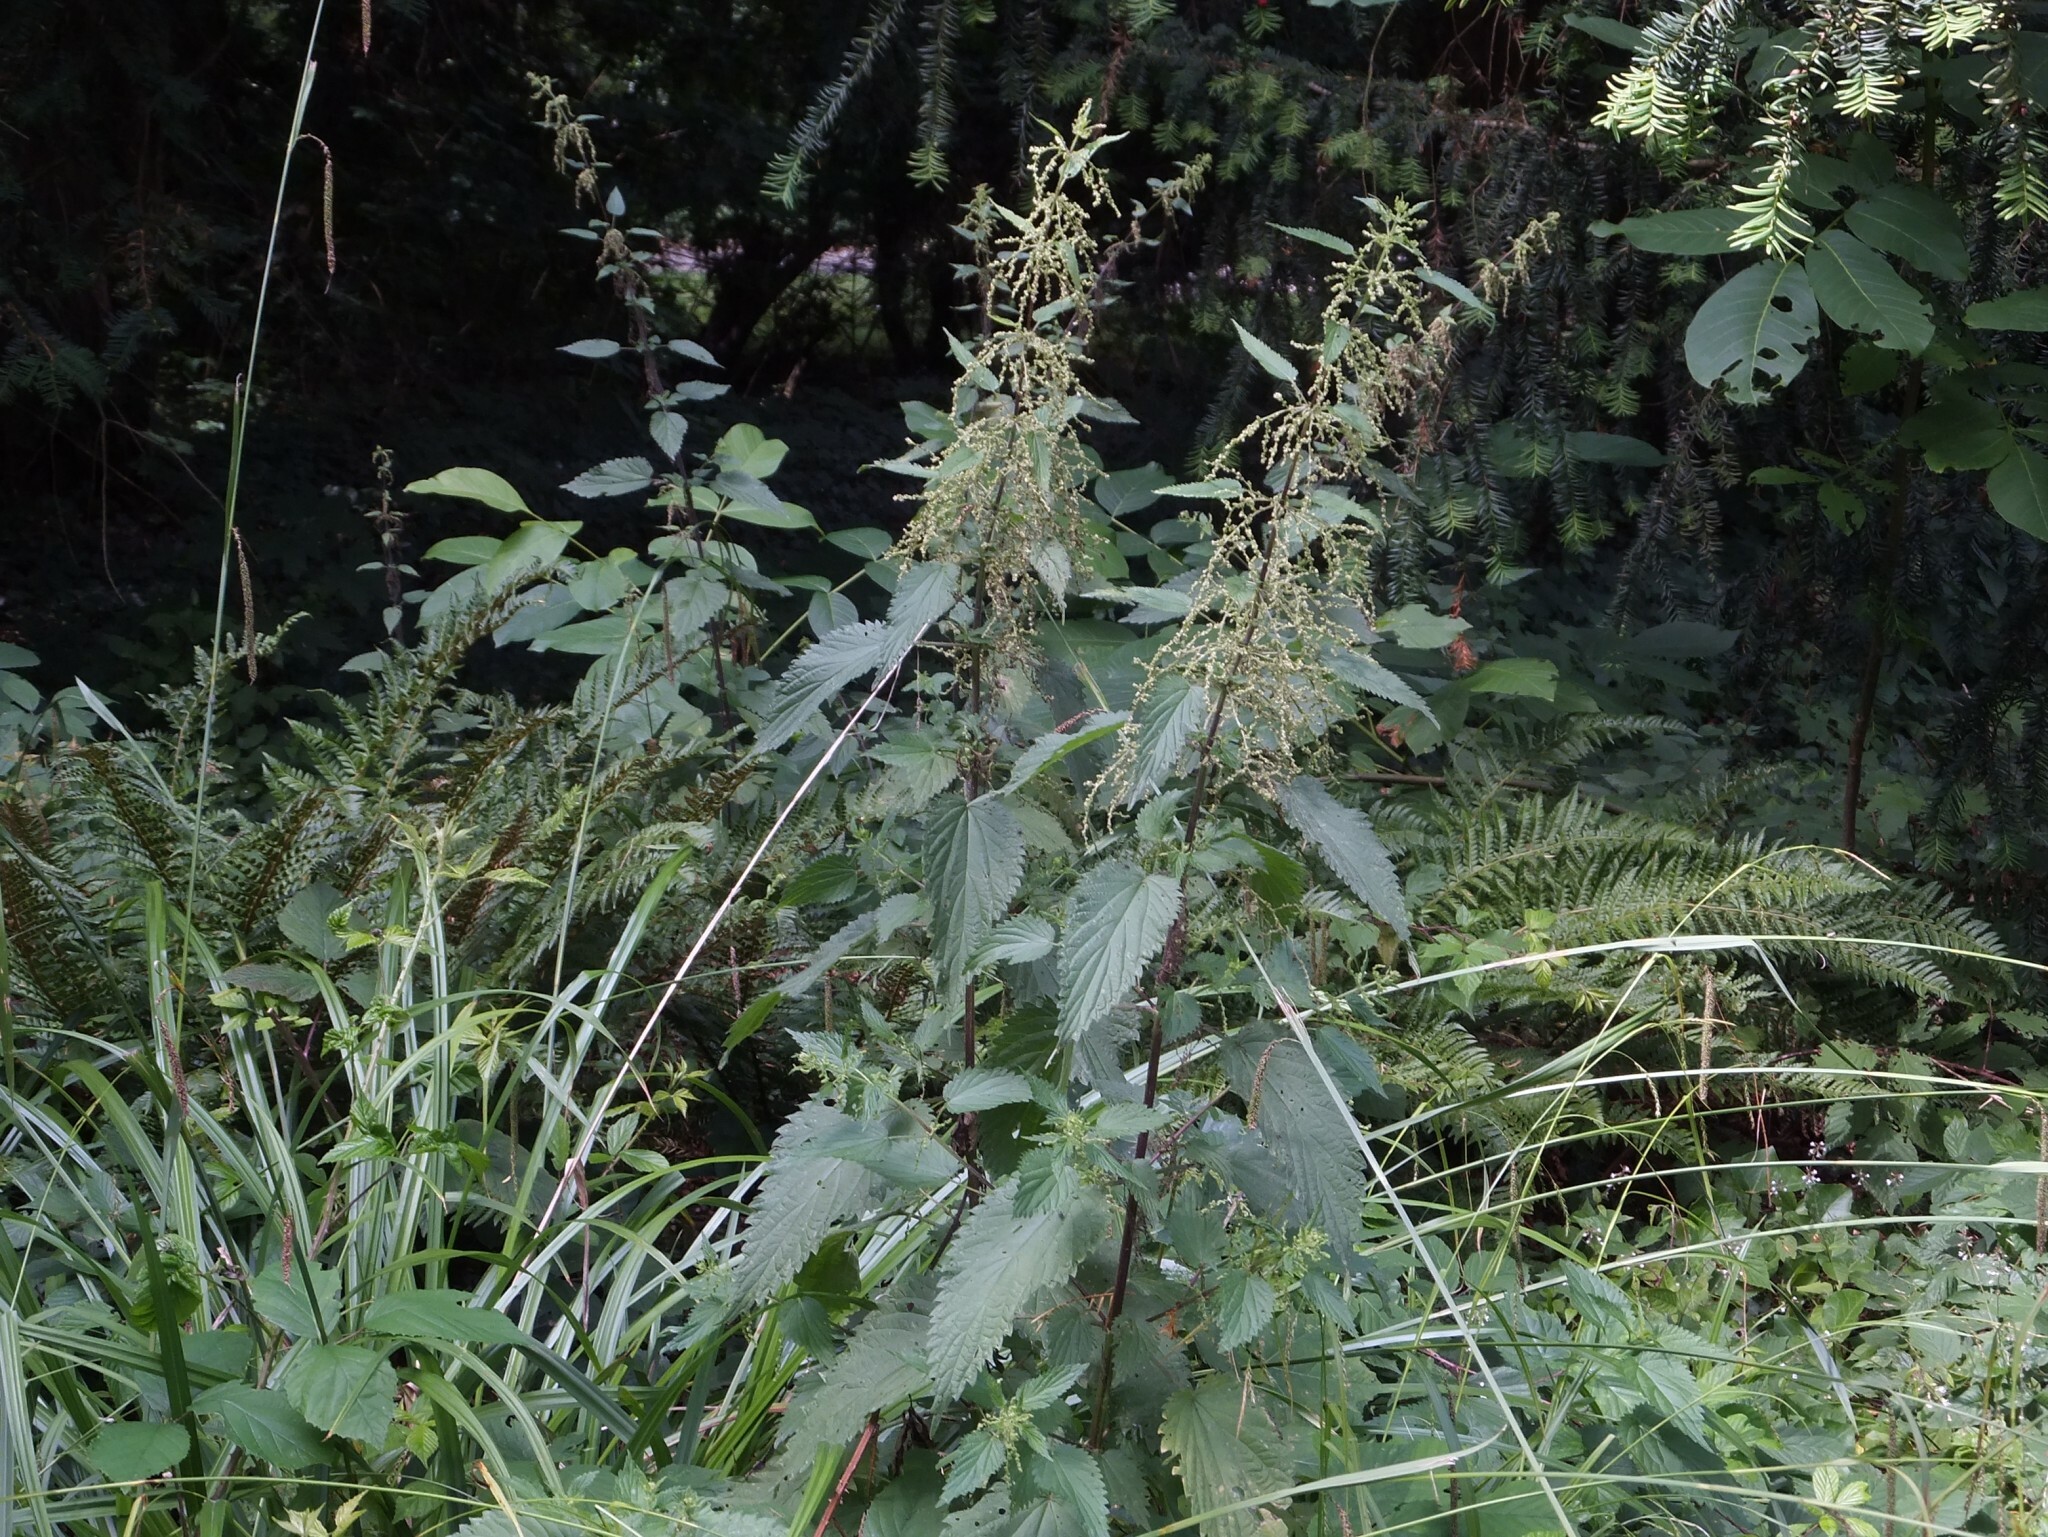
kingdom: Plantae
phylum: Tracheophyta
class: Magnoliopsida
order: Rosales
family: Urticaceae
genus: Urtica
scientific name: Urtica dioica
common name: Common nettle
